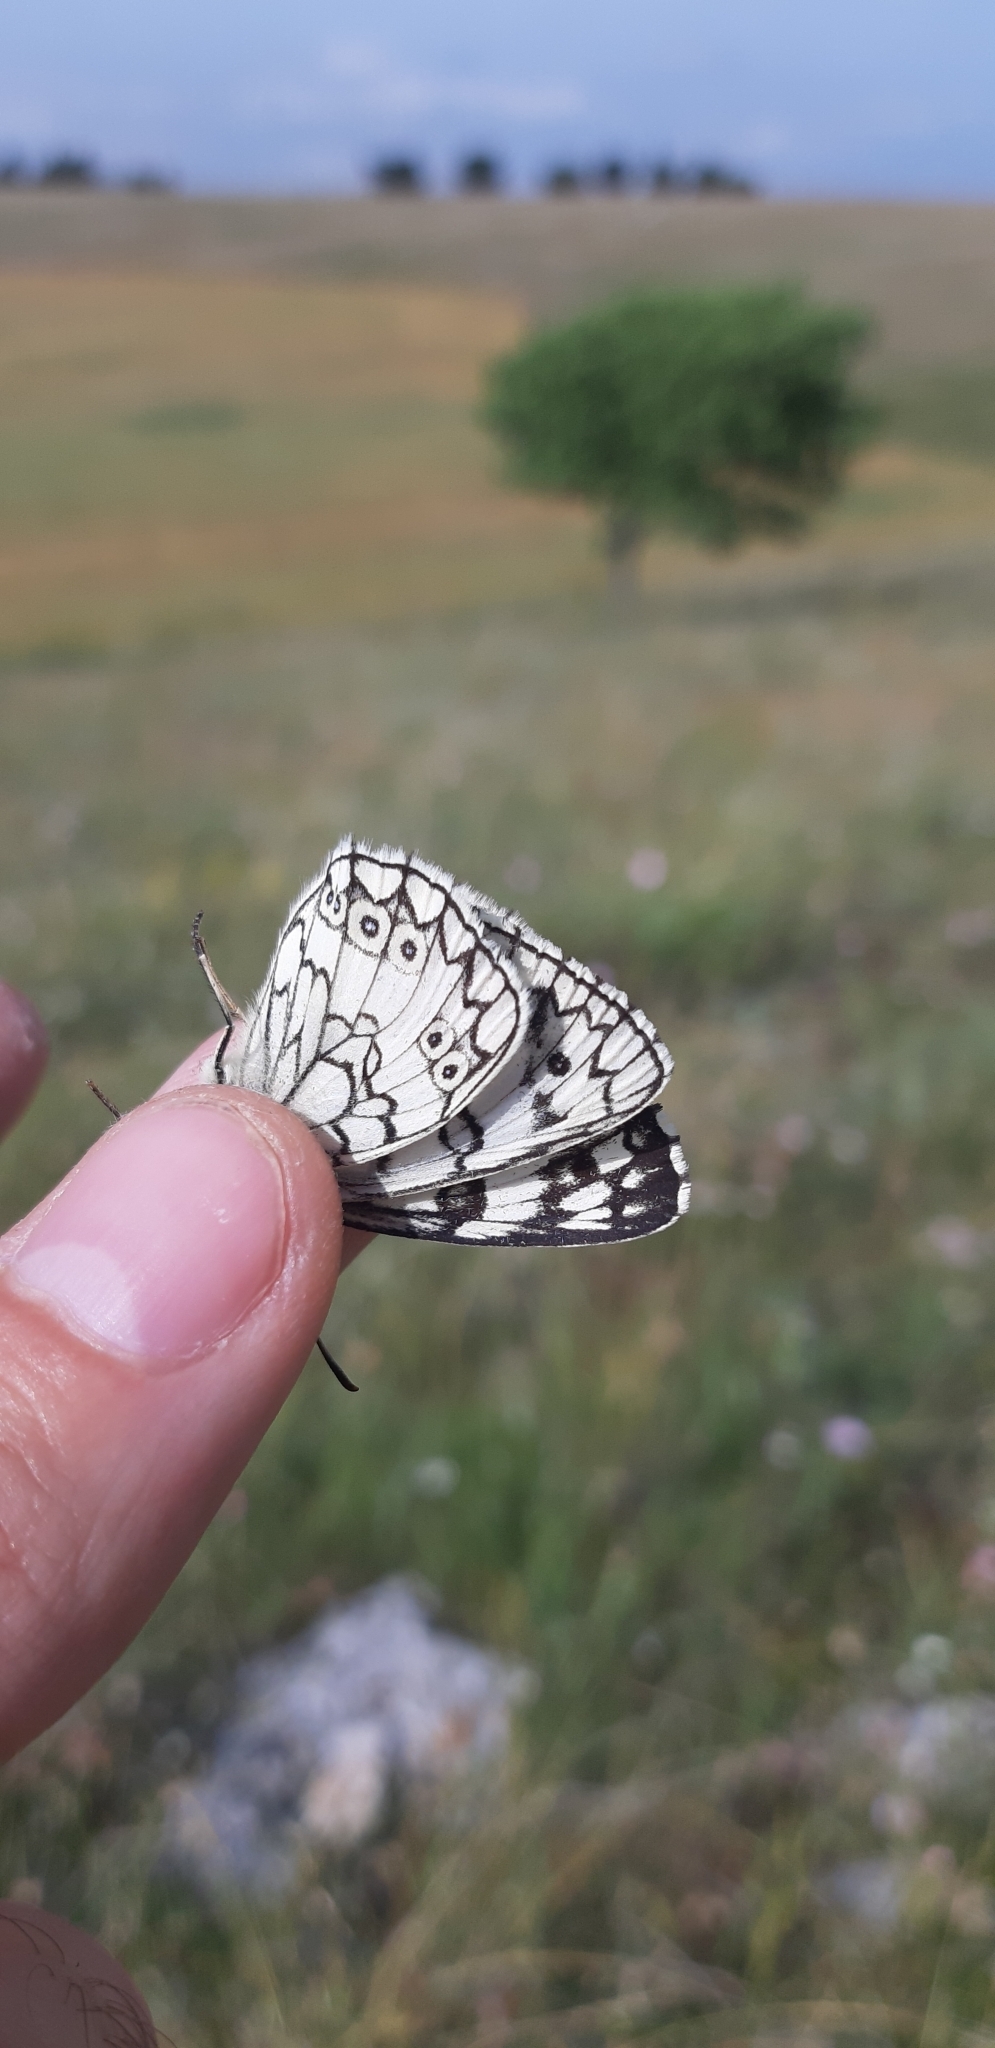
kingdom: Animalia
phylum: Arthropoda
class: Insecta
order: Lepidoptera
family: Nymphalidae
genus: Melanargia
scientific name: Melanargia japygia
